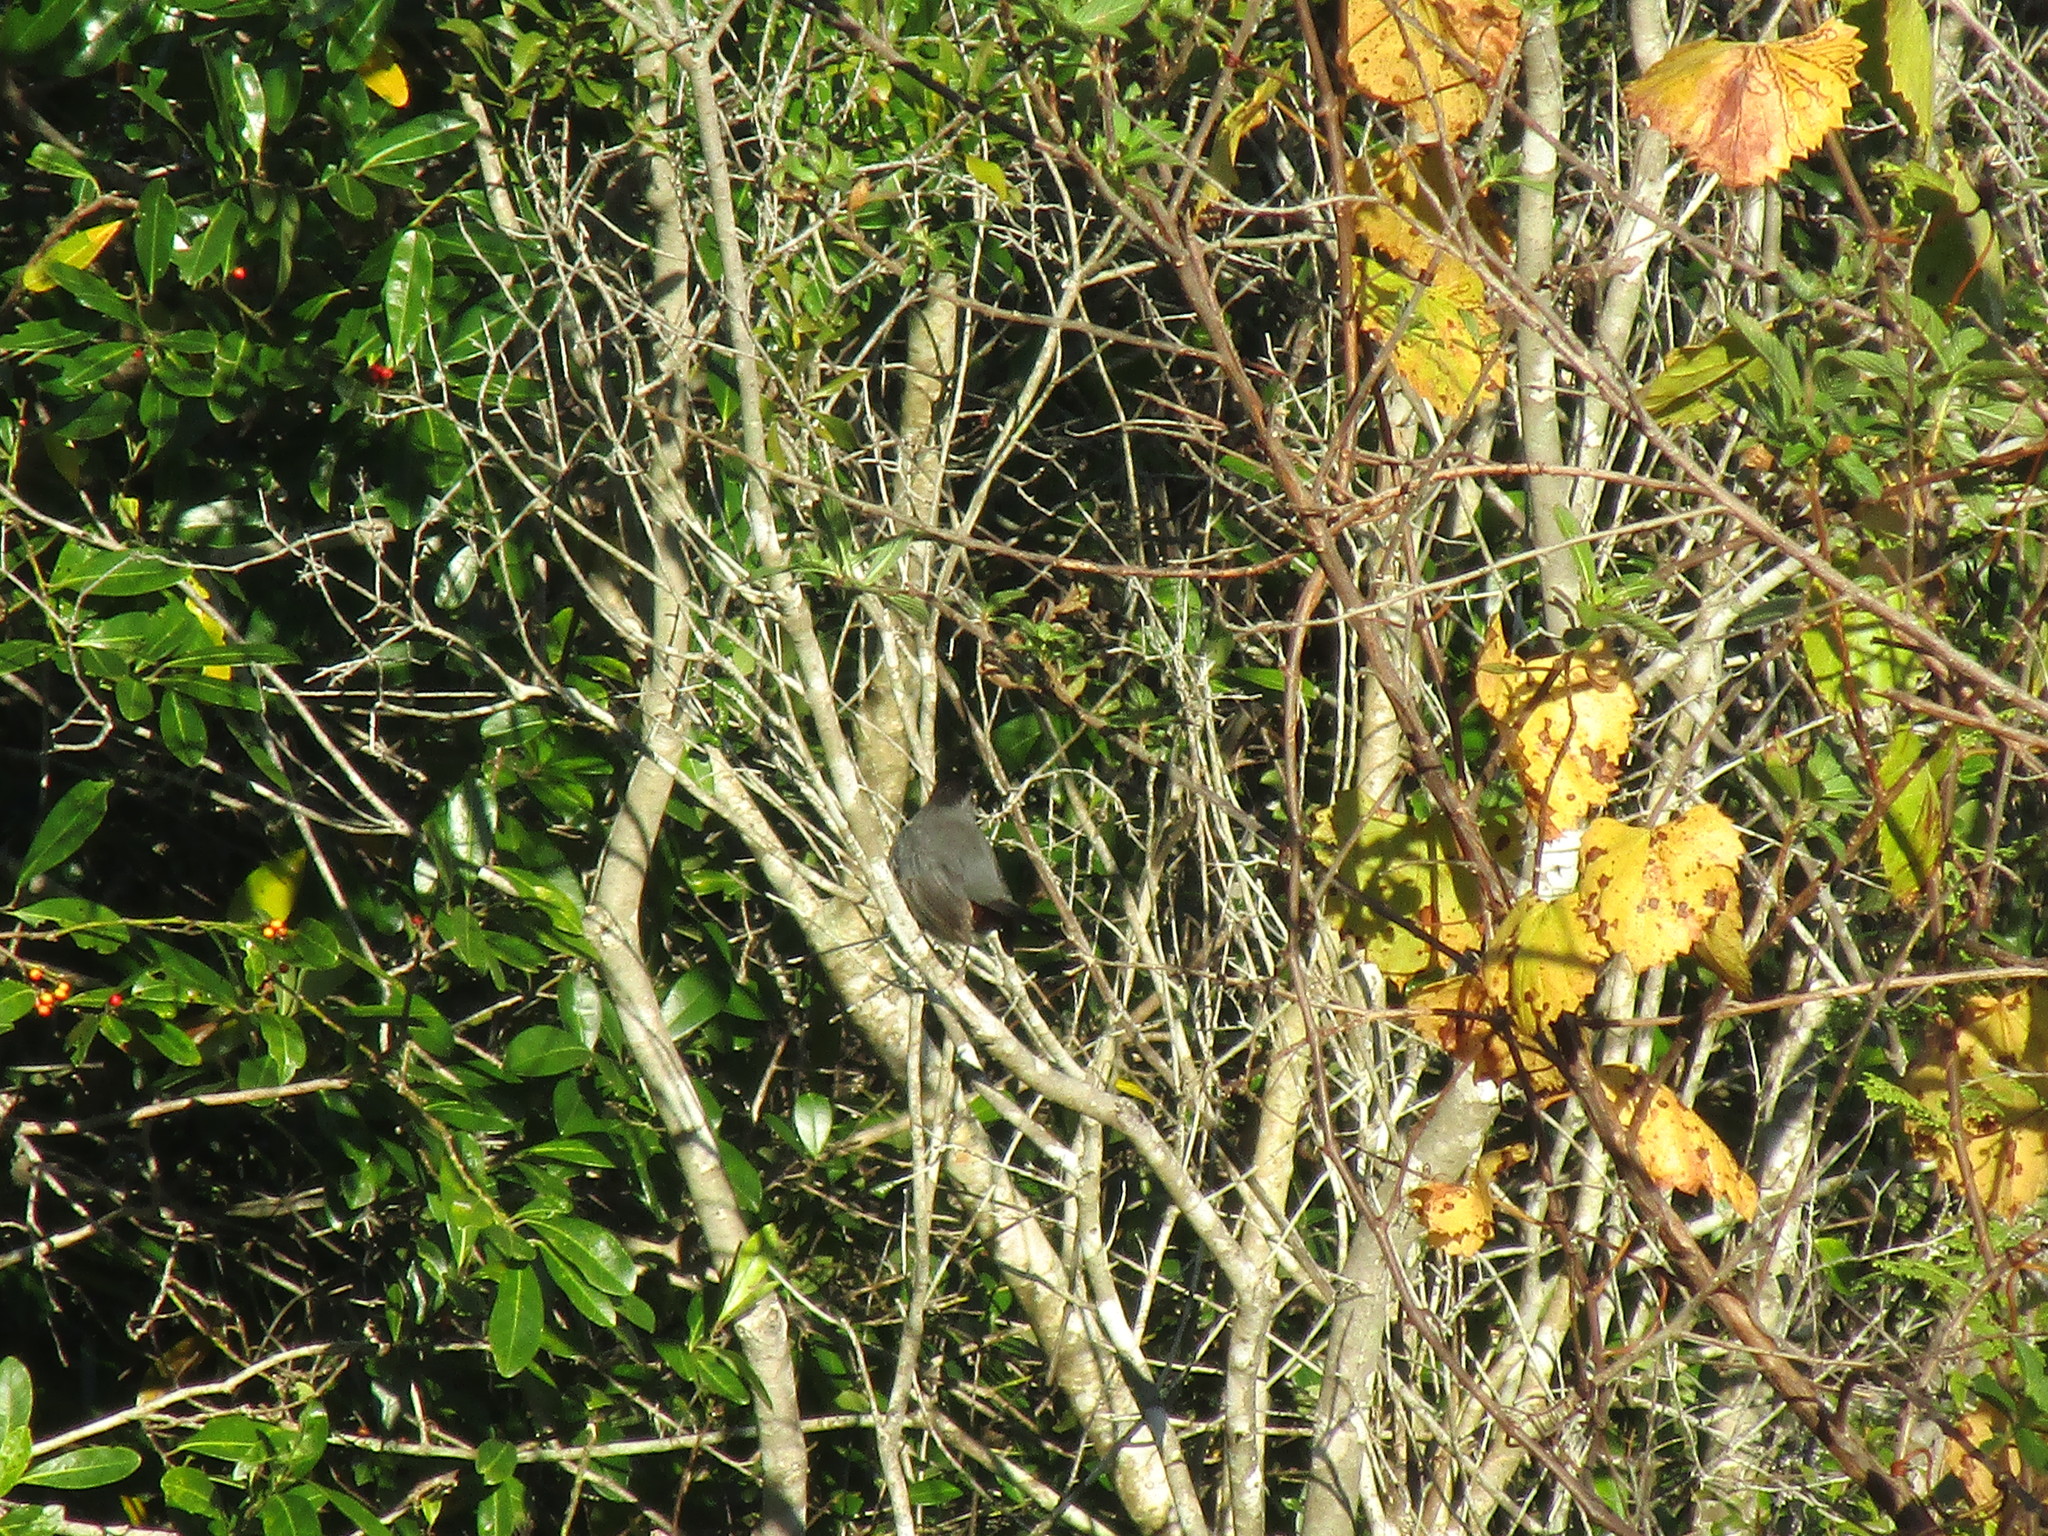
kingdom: Animalia
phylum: Chordata
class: Aves
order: Passeriformes
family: Mimidae
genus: Dumetella
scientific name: Dumetella carolinensis
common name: Gray catbird
